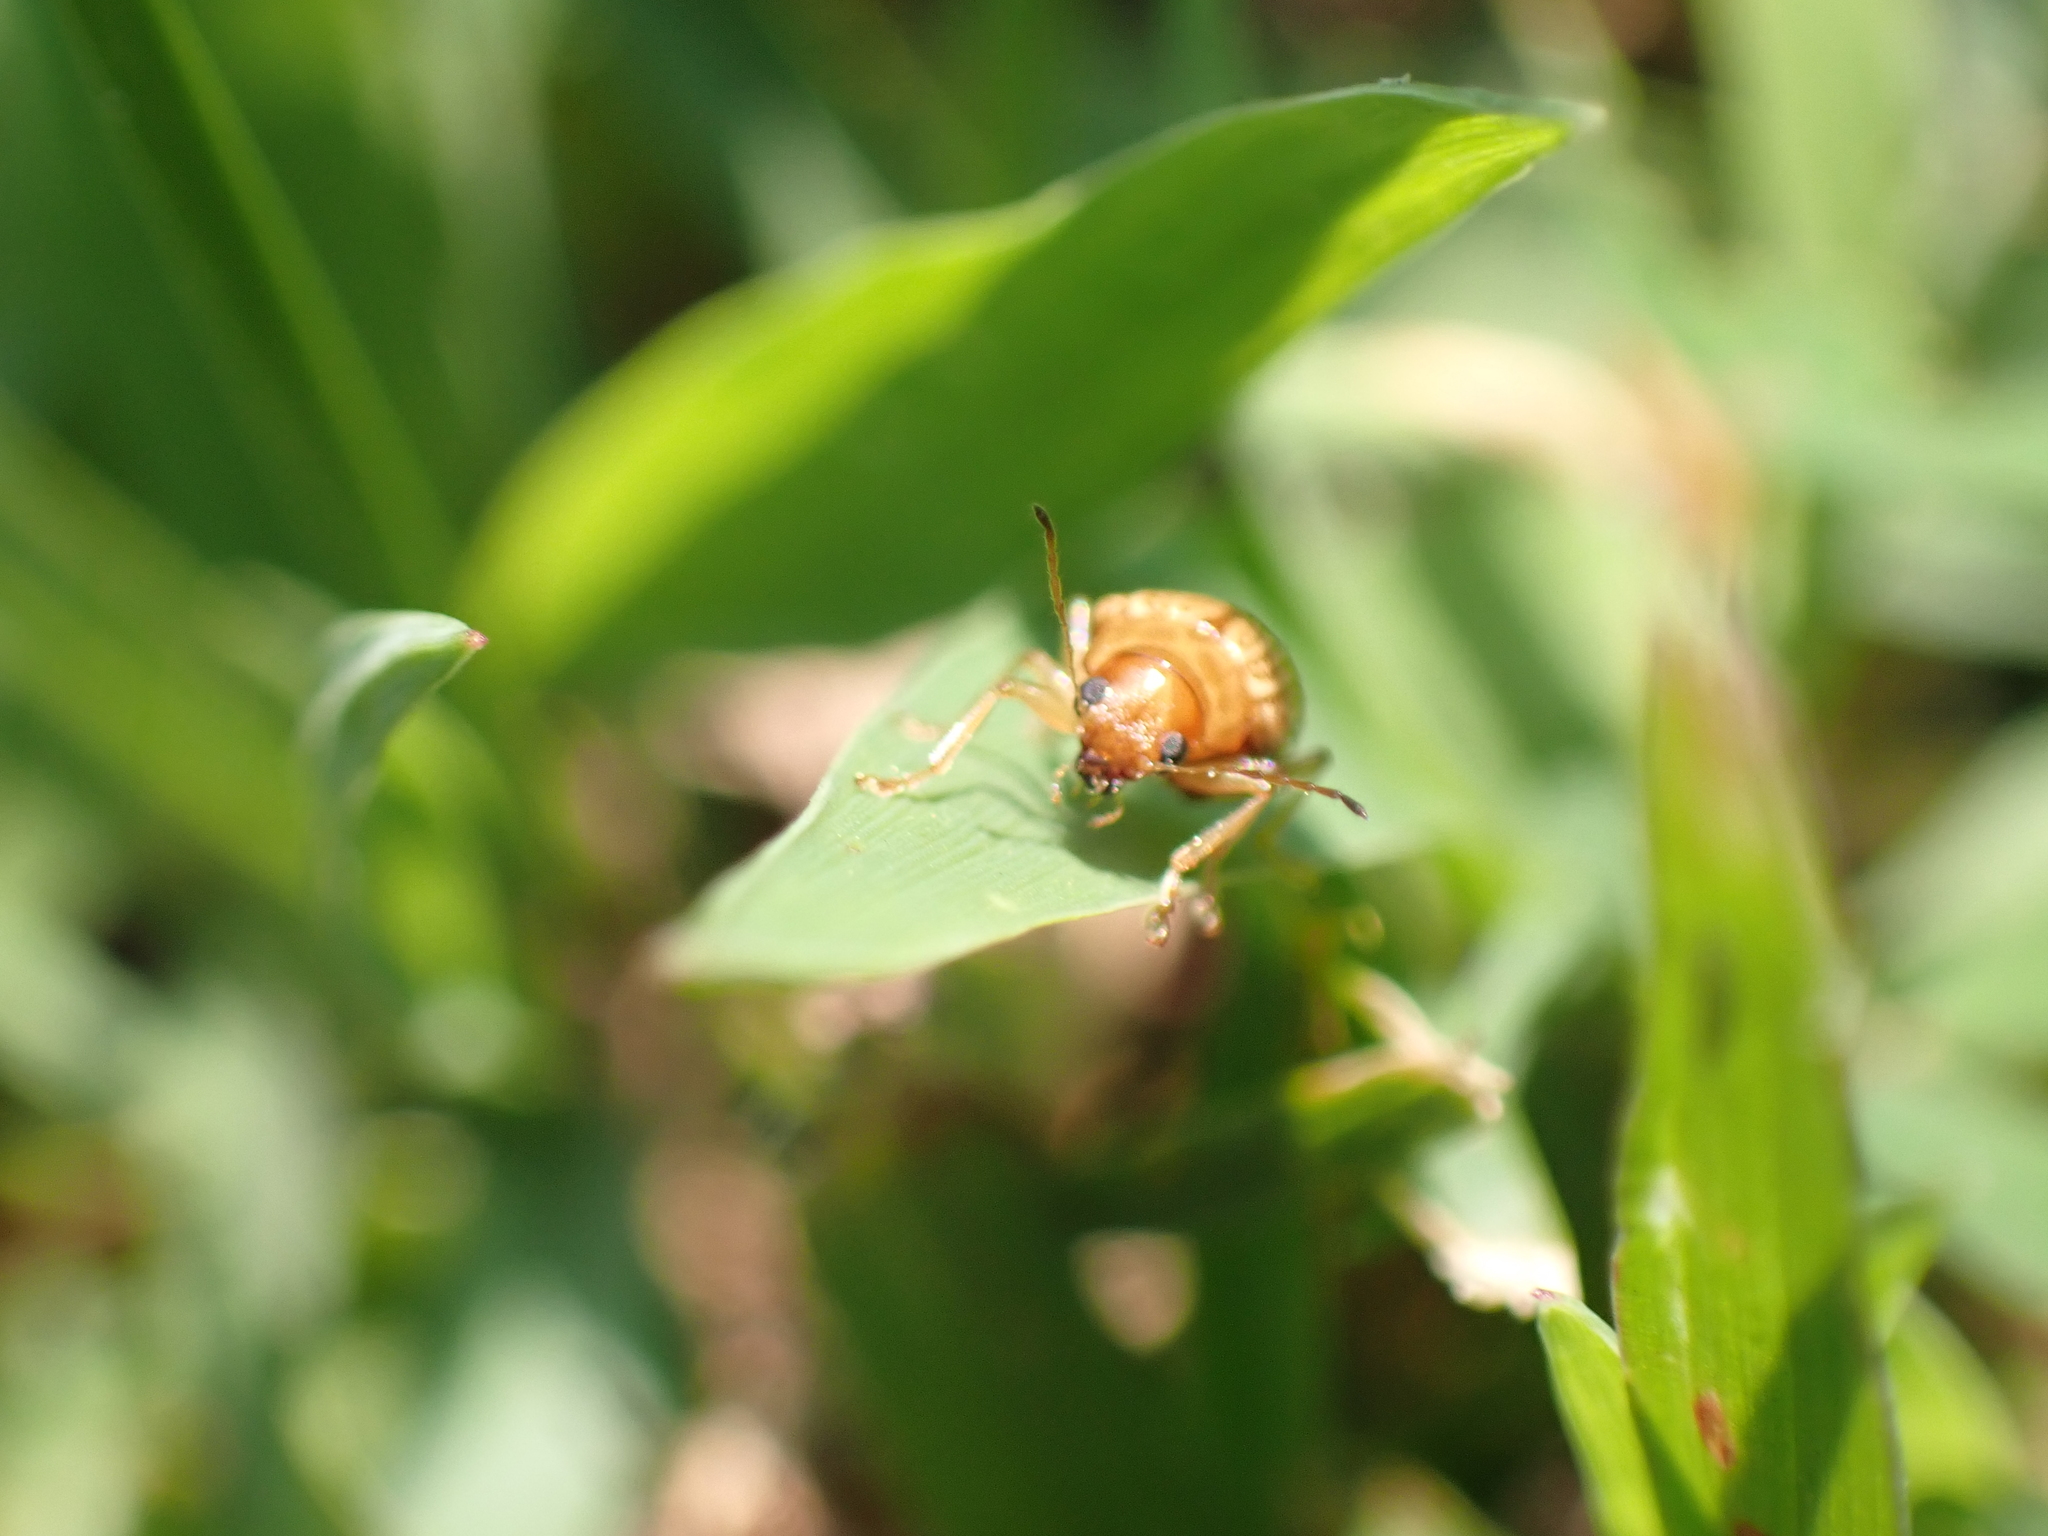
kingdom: Animalia
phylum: Arthropoda
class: Insecta
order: Coleoptera
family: Chrysomelidae
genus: Colaspis
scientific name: Colaspis brunnea
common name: Grape colaspis
